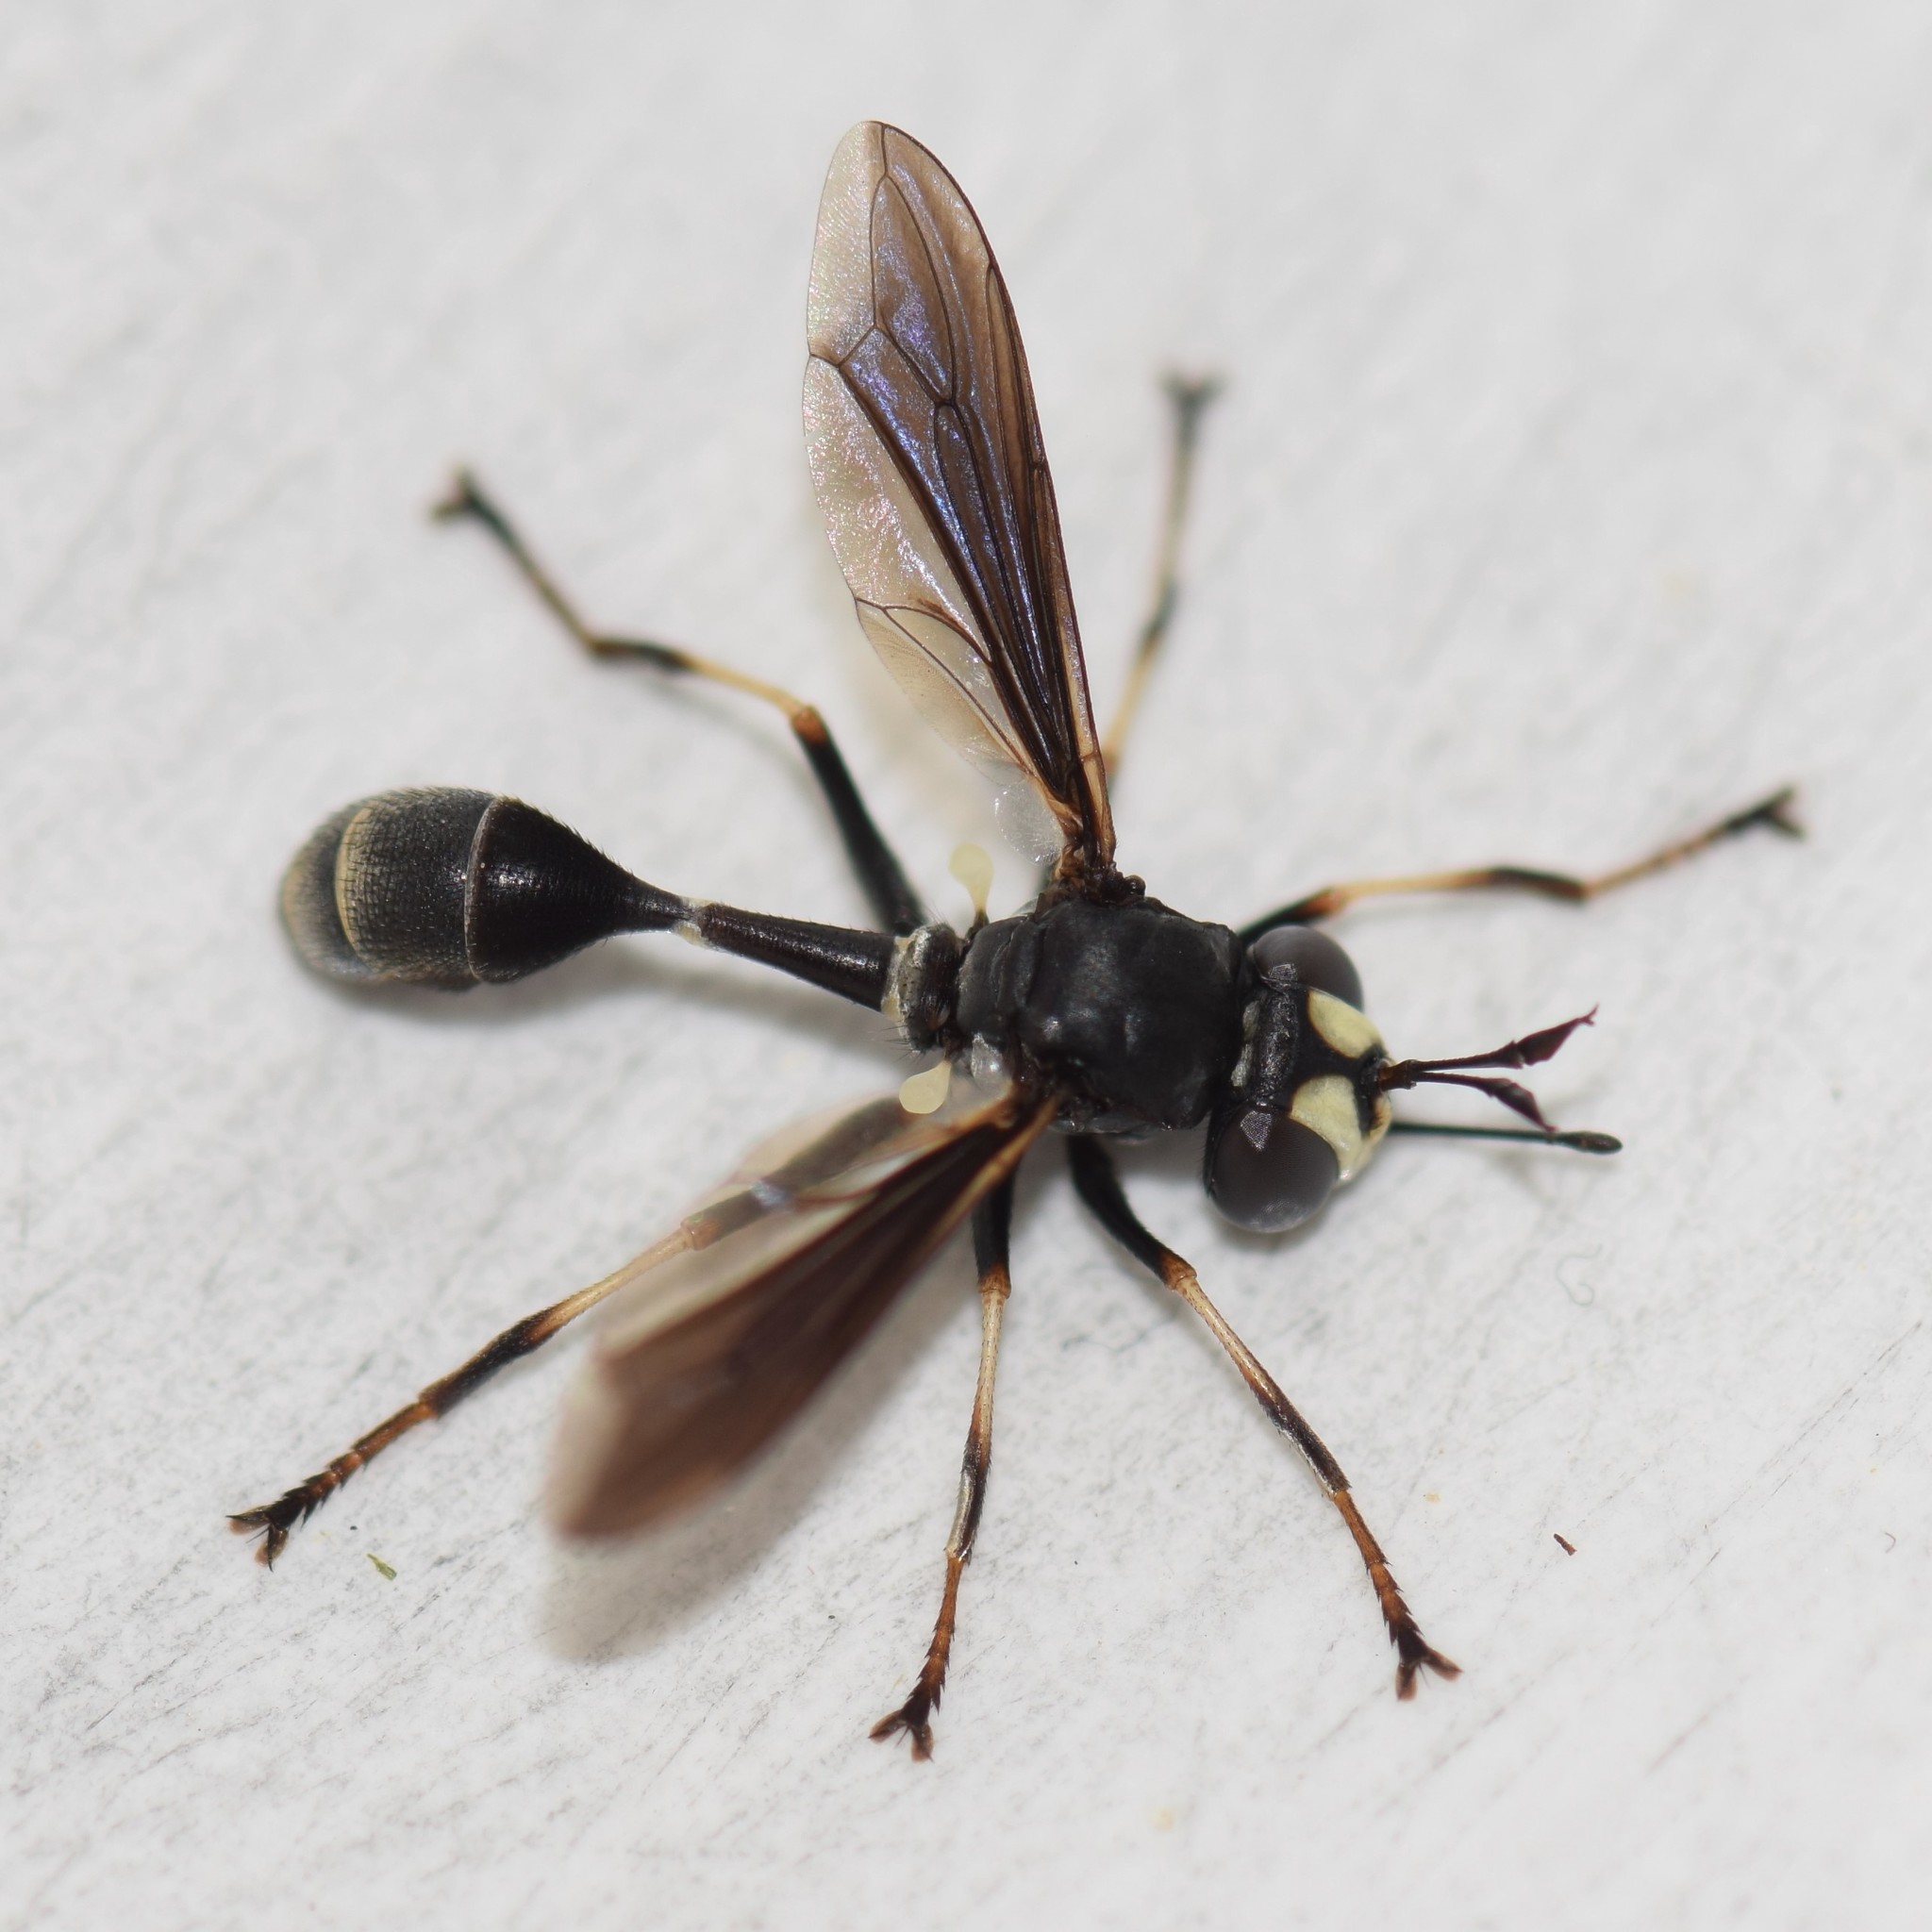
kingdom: Animalia
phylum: Arthropoda
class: Insecta
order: Diptera
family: Conopidae
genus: Physocephala
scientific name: Physocephala tibialis
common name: Common eastern physocephala
